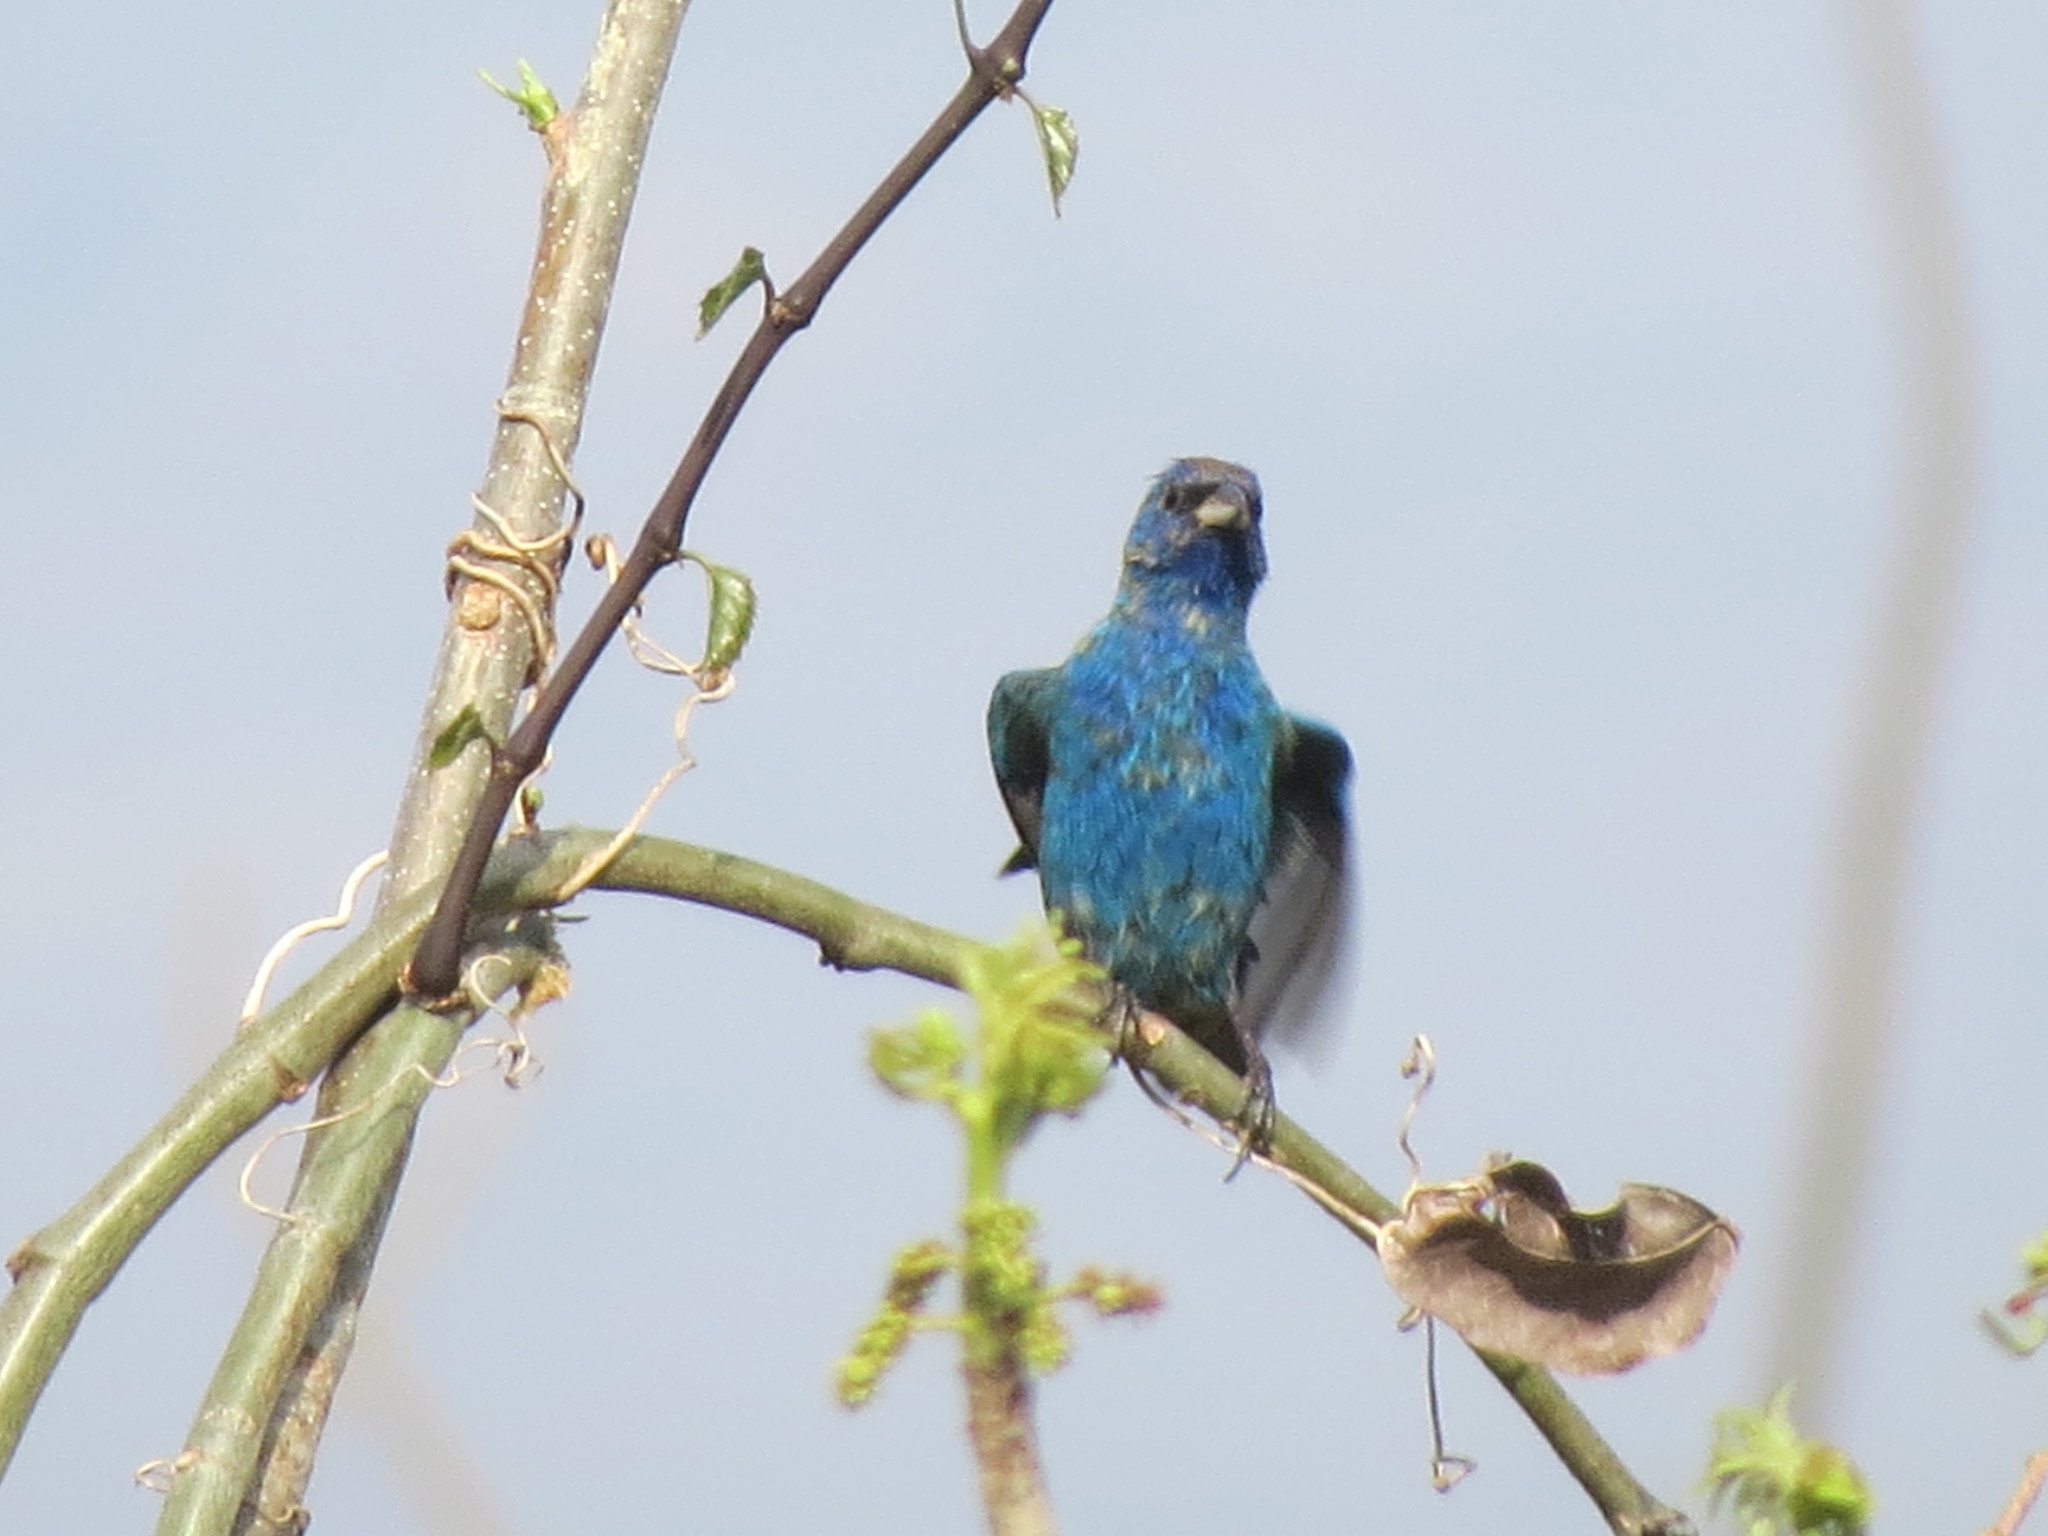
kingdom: Animalia
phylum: Chordata
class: Aves
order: Passeriformes
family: Cardinalidae
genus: Passerina
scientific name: Passerina cyanea
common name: Indigo bunting
